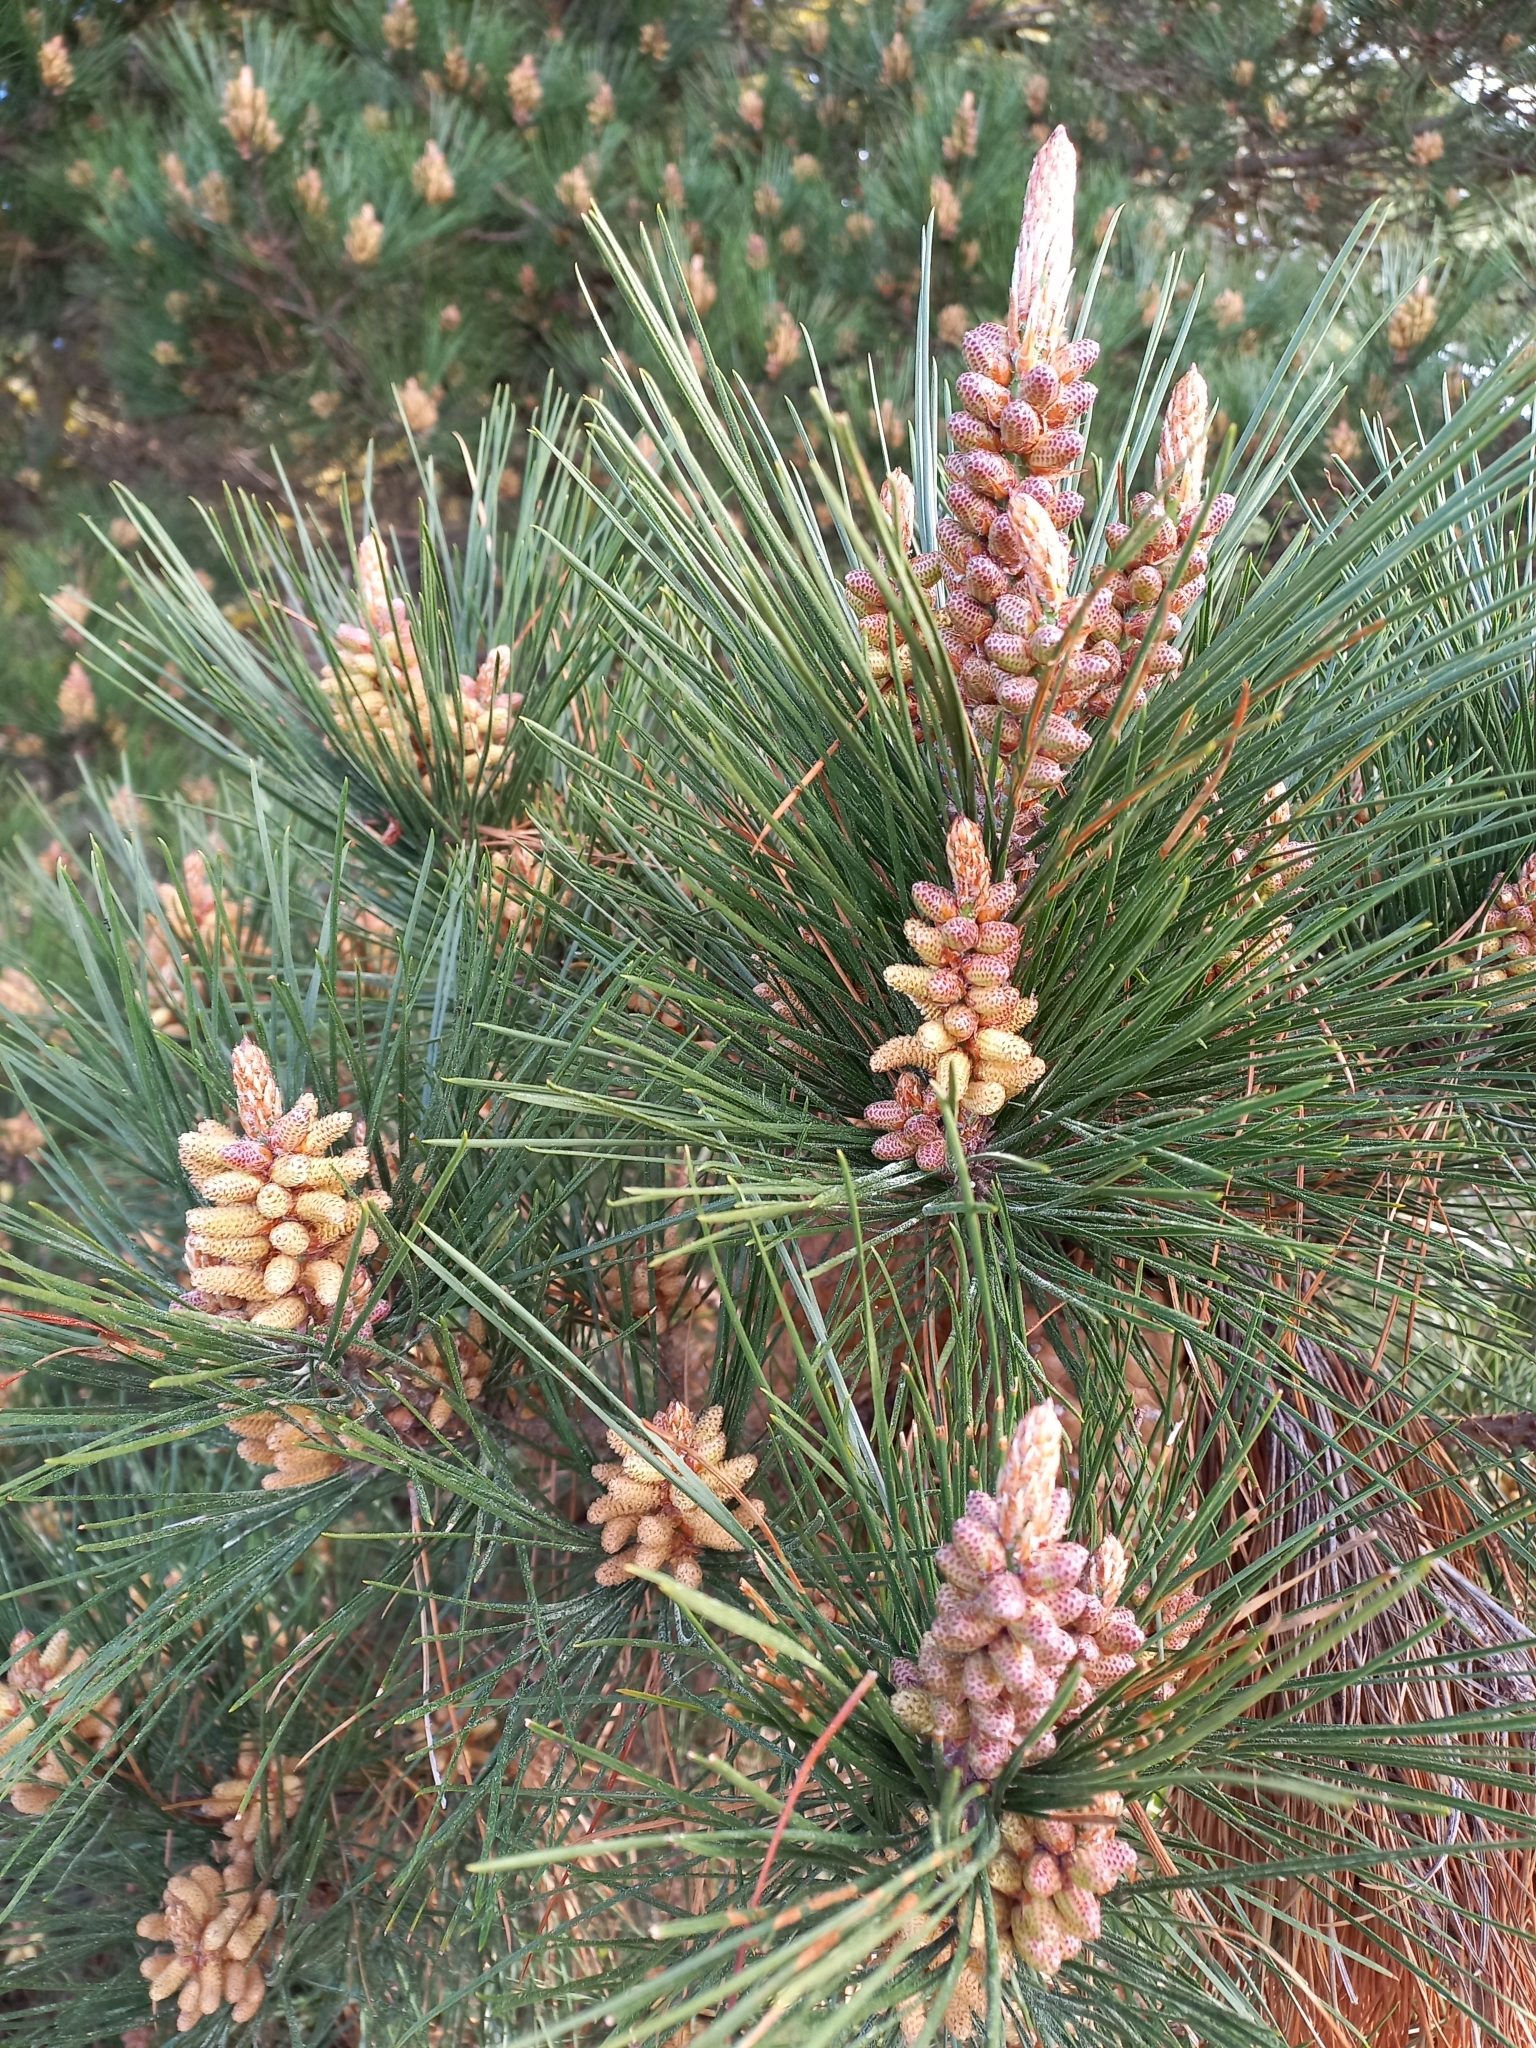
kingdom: Plantae
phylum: Tracheophyta
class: Pinopsida
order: Pinales
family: Pinaceae
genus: Pinus
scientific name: Pinus radiata
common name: Monterey pine
